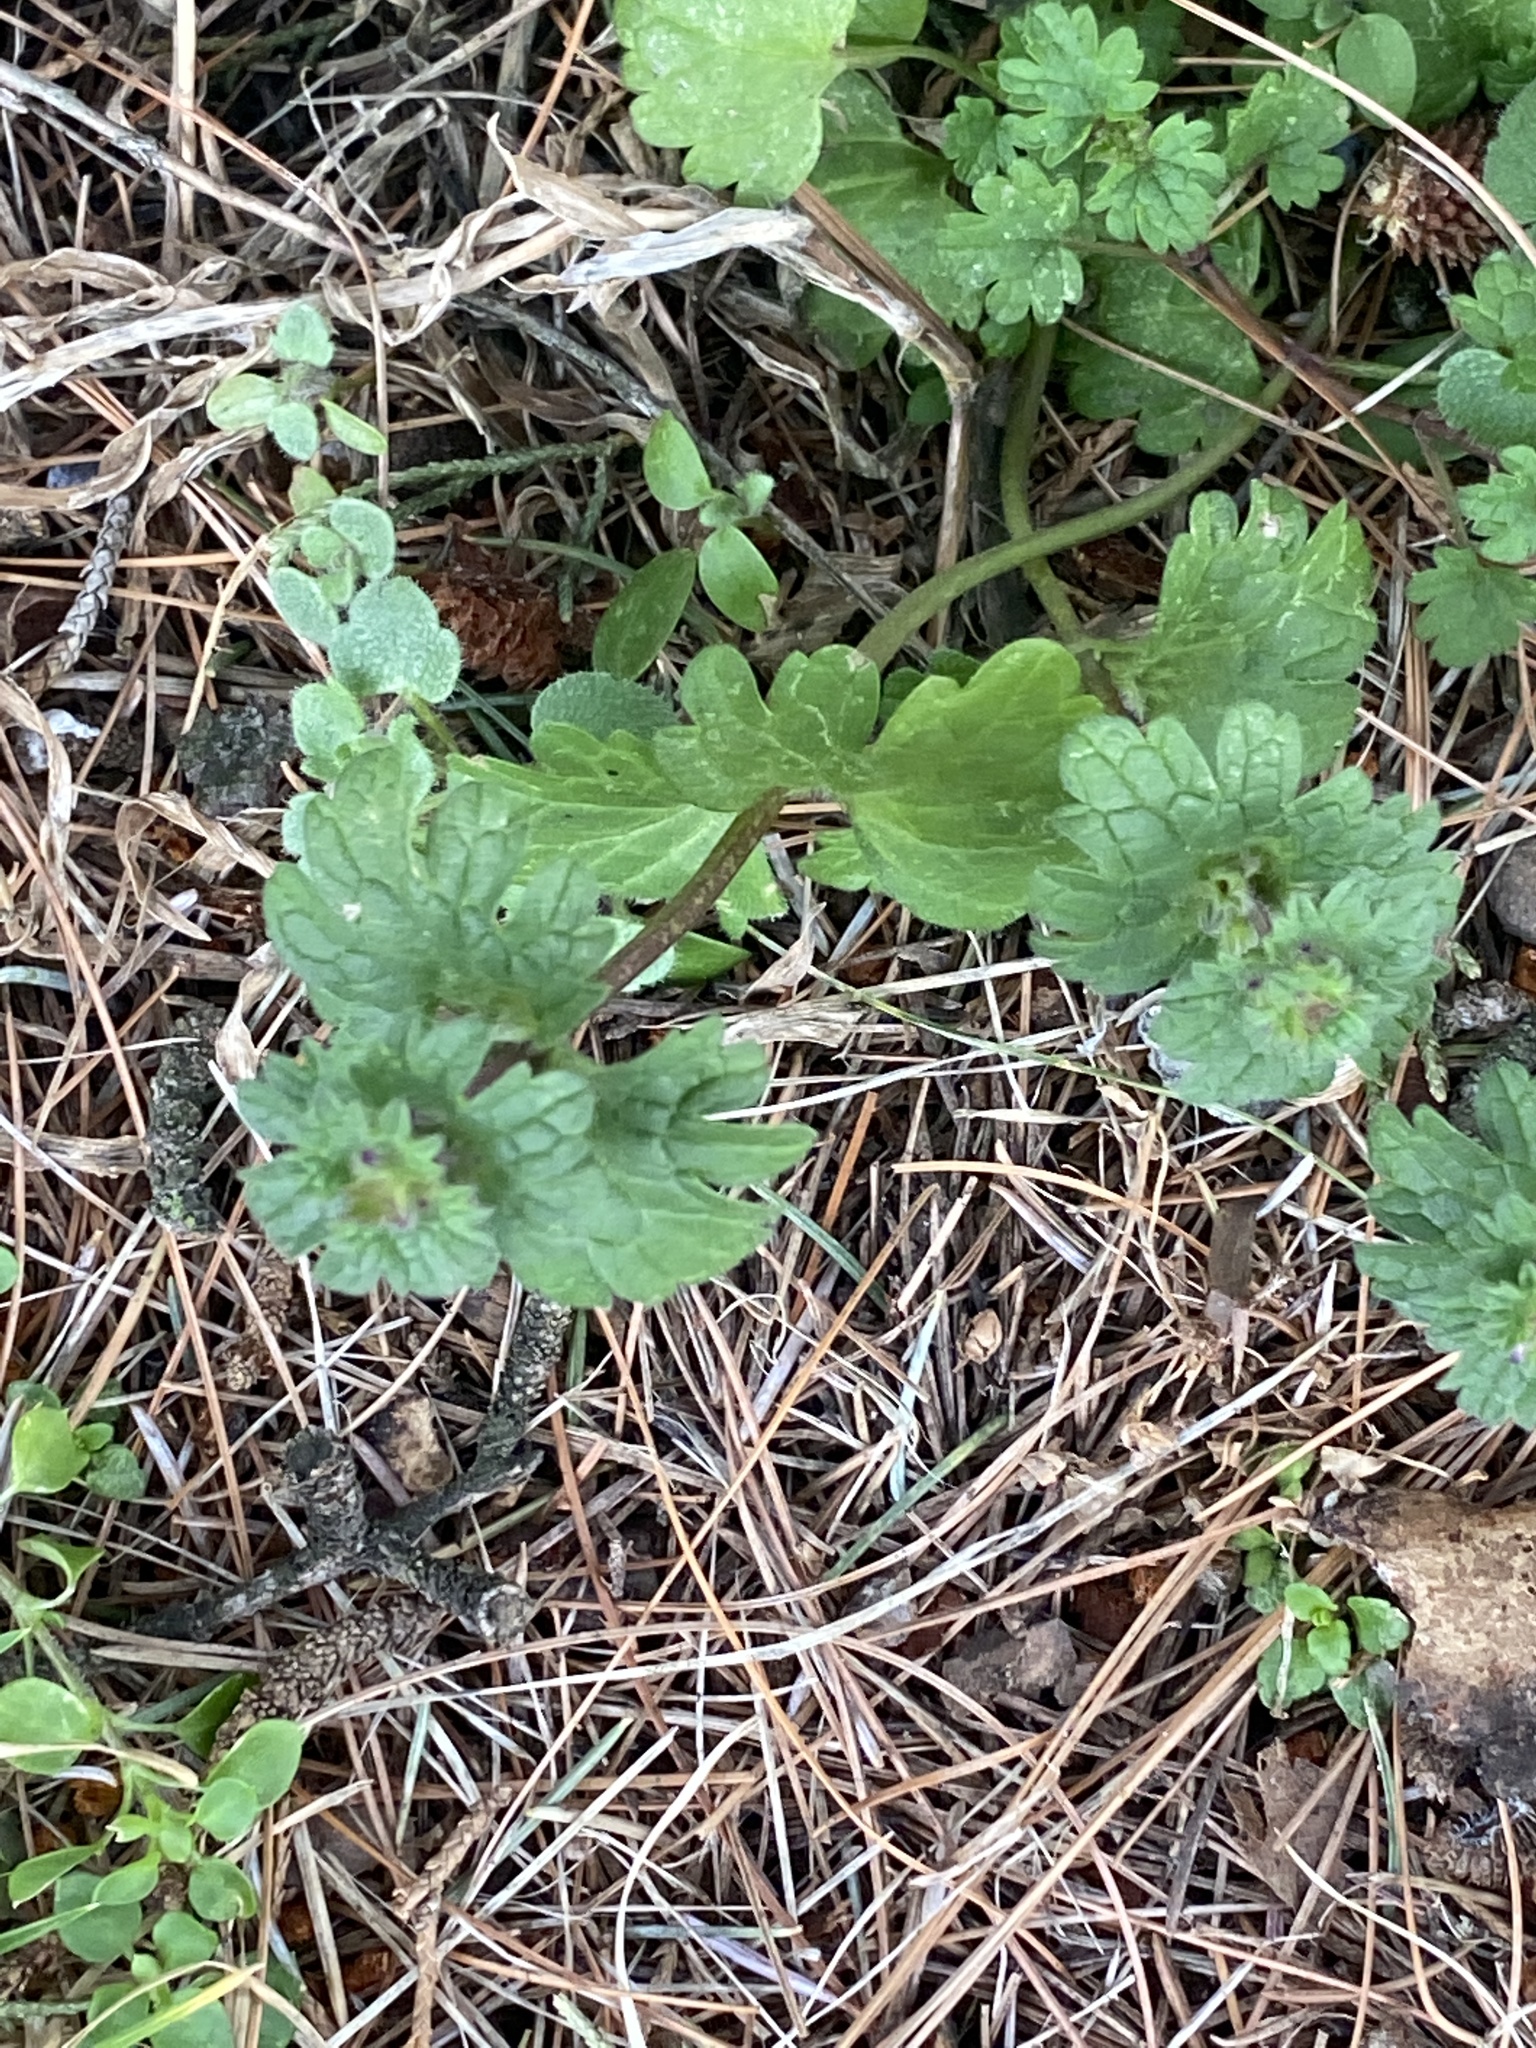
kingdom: Plantae
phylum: Tracheophyta
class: Magnoliopsida
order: Lamiales
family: Lamiaceae
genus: Lamium
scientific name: Lamium amplexicaule
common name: Henbit dead-nettle
